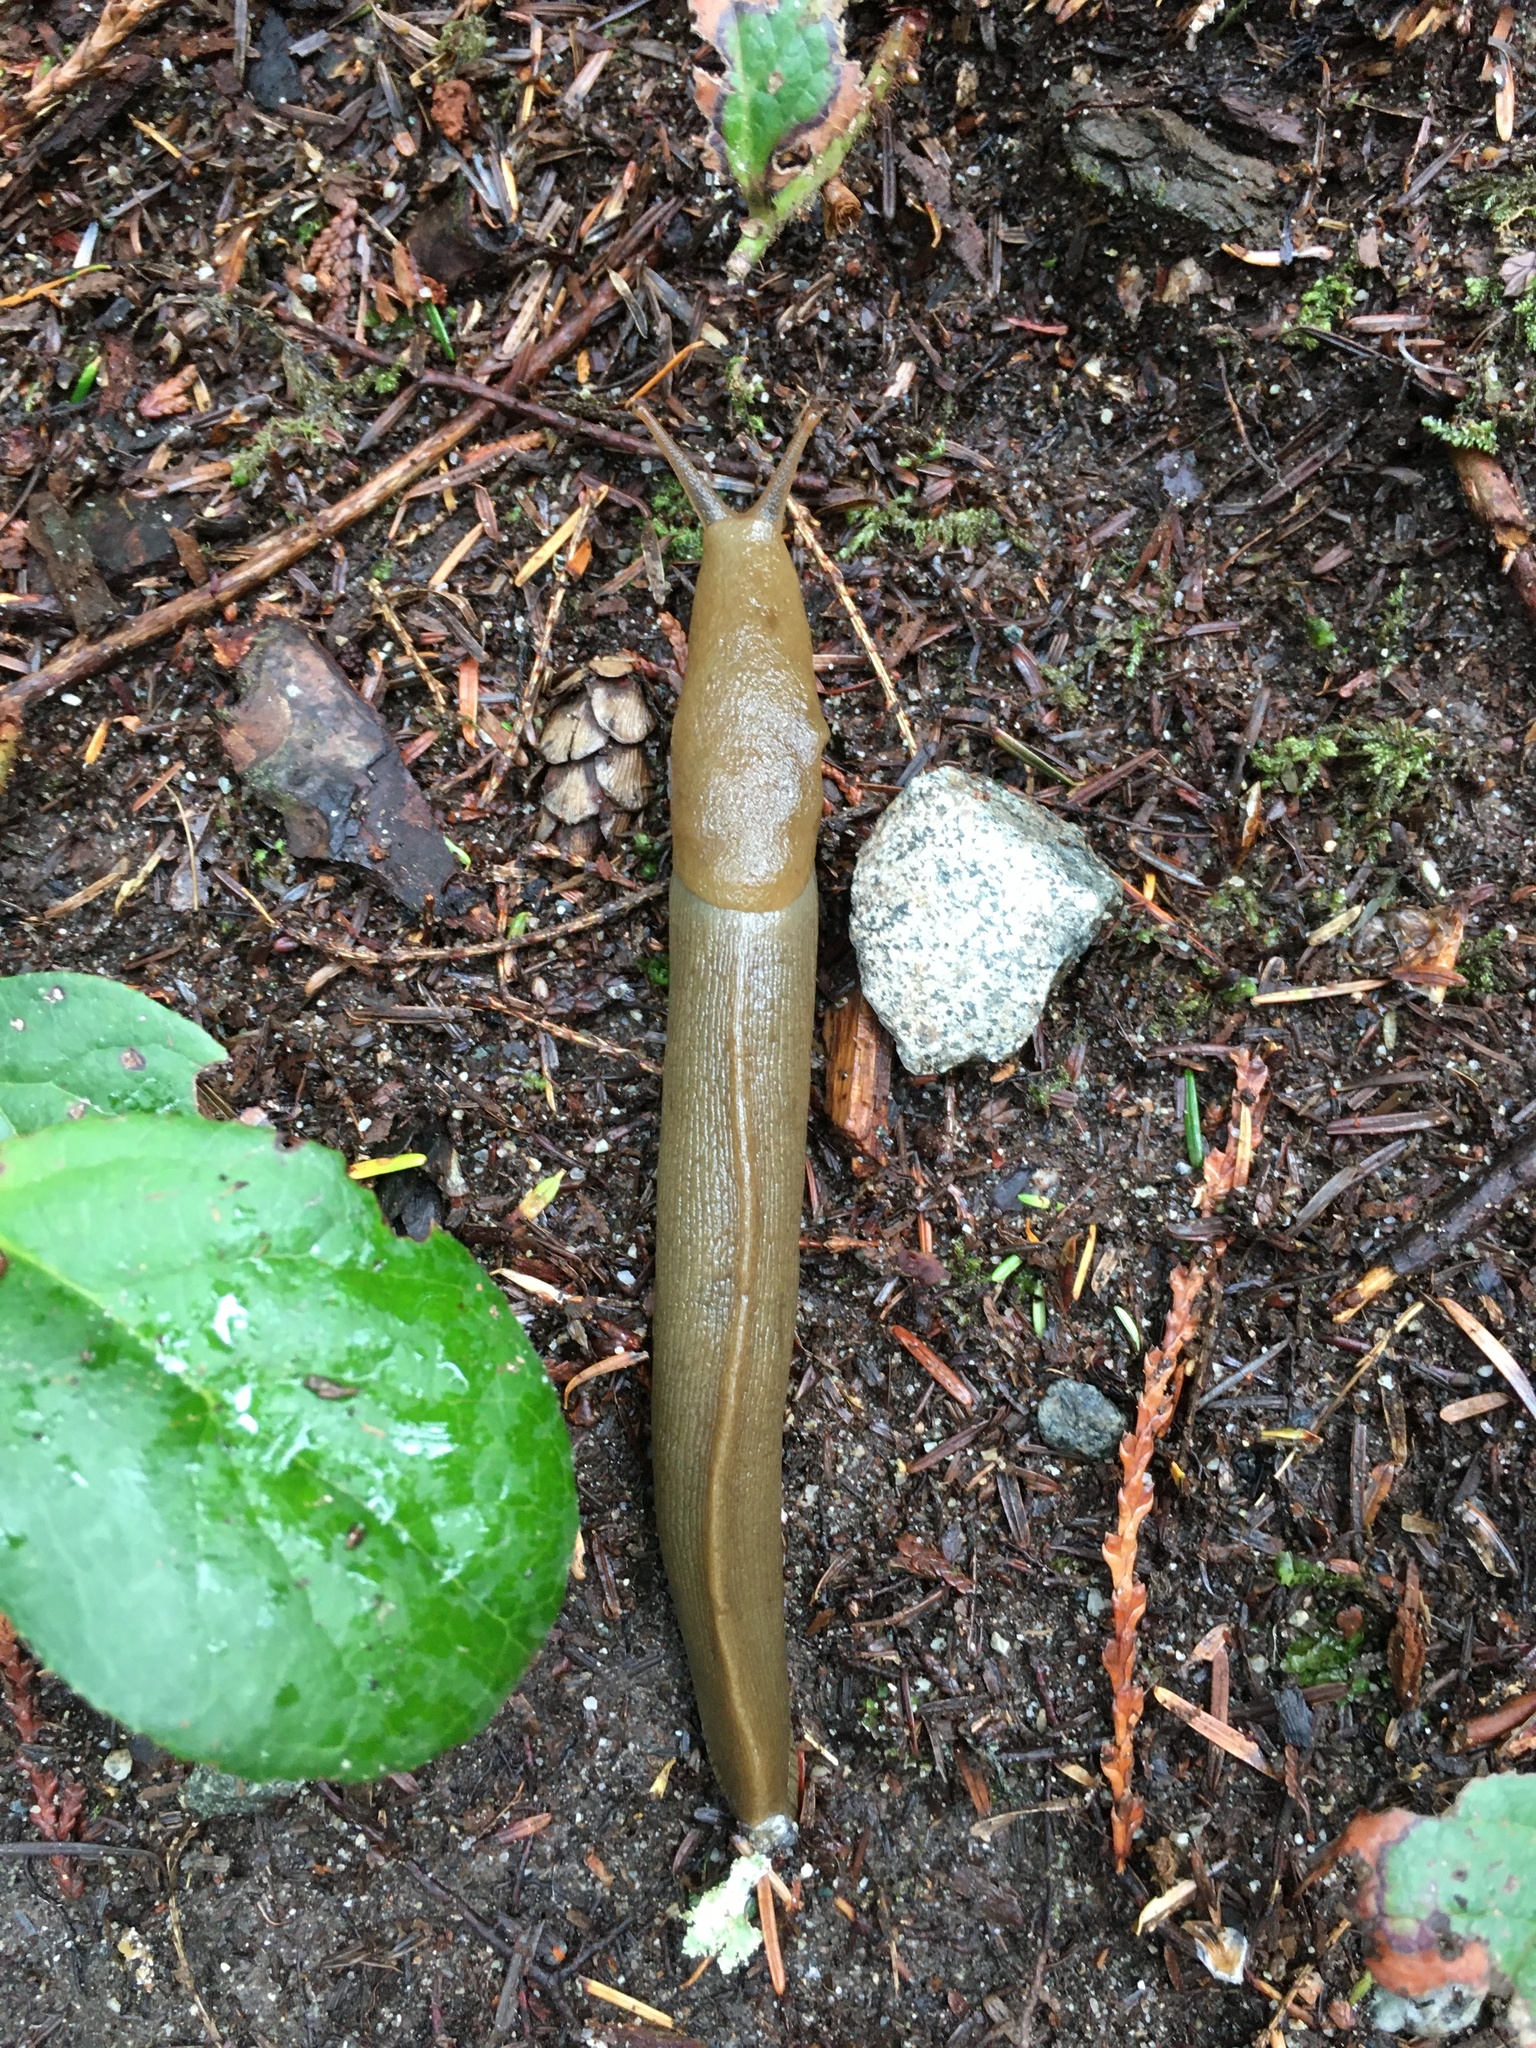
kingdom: Animalia
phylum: Mollusca
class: Gastropoda
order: Stylommatophora
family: Ariolimacidae
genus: Ariolimax
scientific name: Ariolimax columbianus
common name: Pacific banana slug
